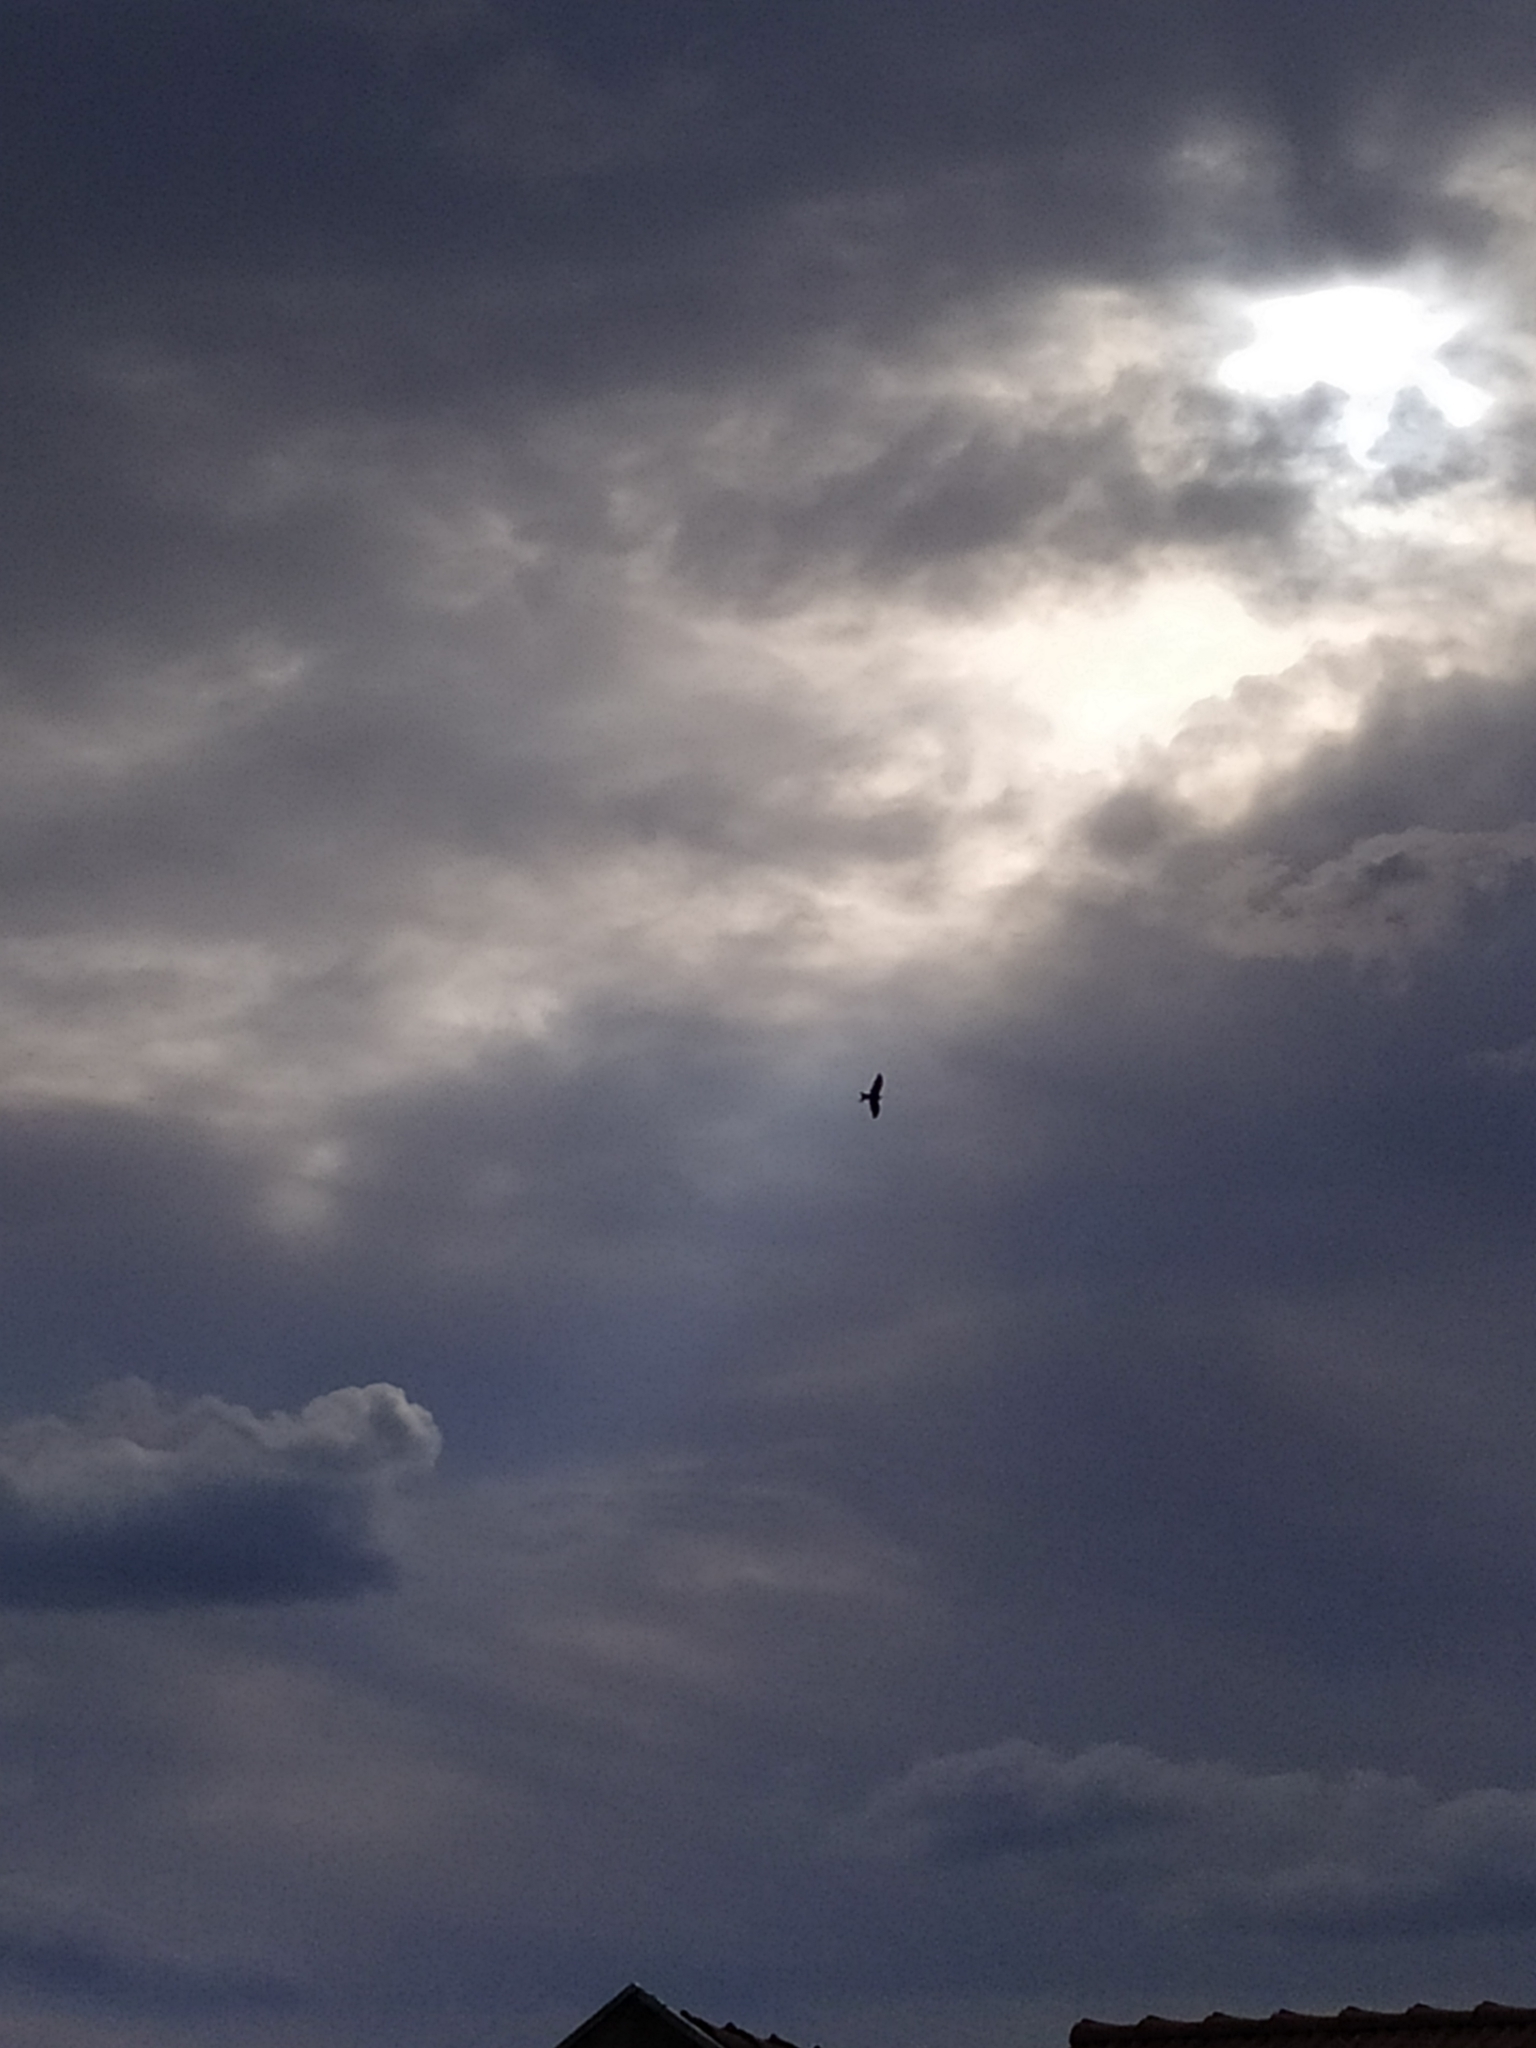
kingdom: Animalia
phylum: Chordata
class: Aves
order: Accipitriformes
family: Accipitridae
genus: Milvus
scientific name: Milvus milvus
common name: Red kite
